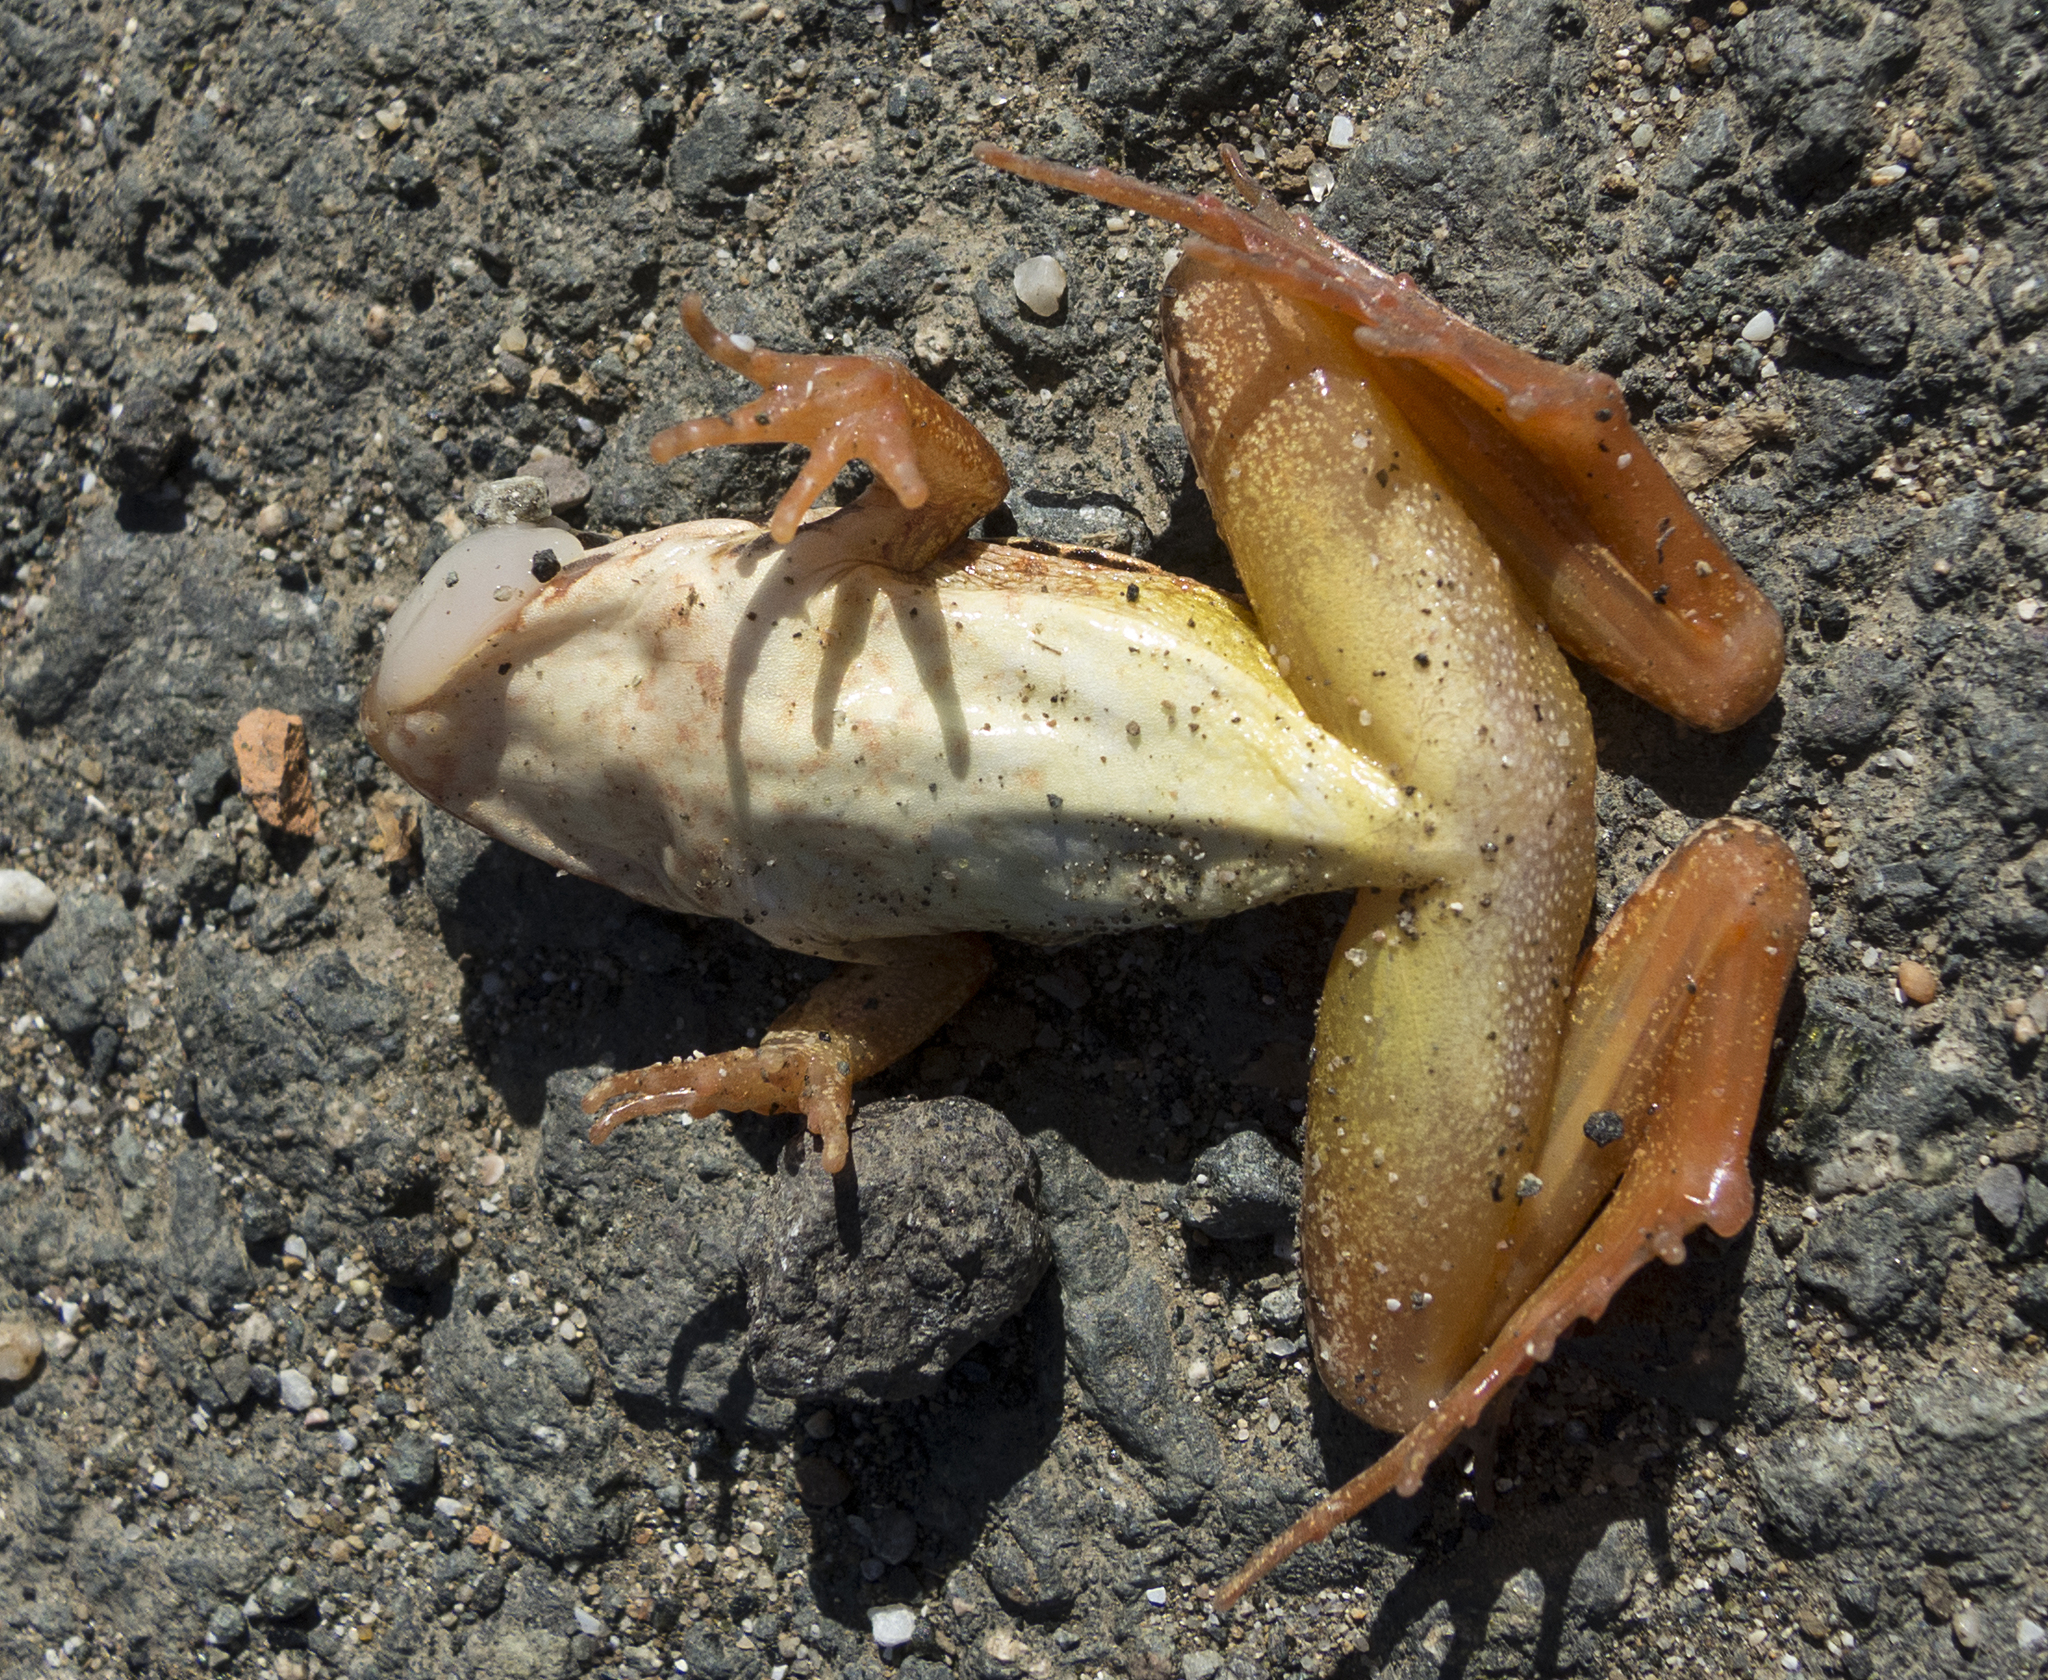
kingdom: Animalia
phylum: Chordata
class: Amphibia
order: Anura
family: Ranidae
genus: Rana
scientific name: Rana dalmatina
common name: Agile frog
